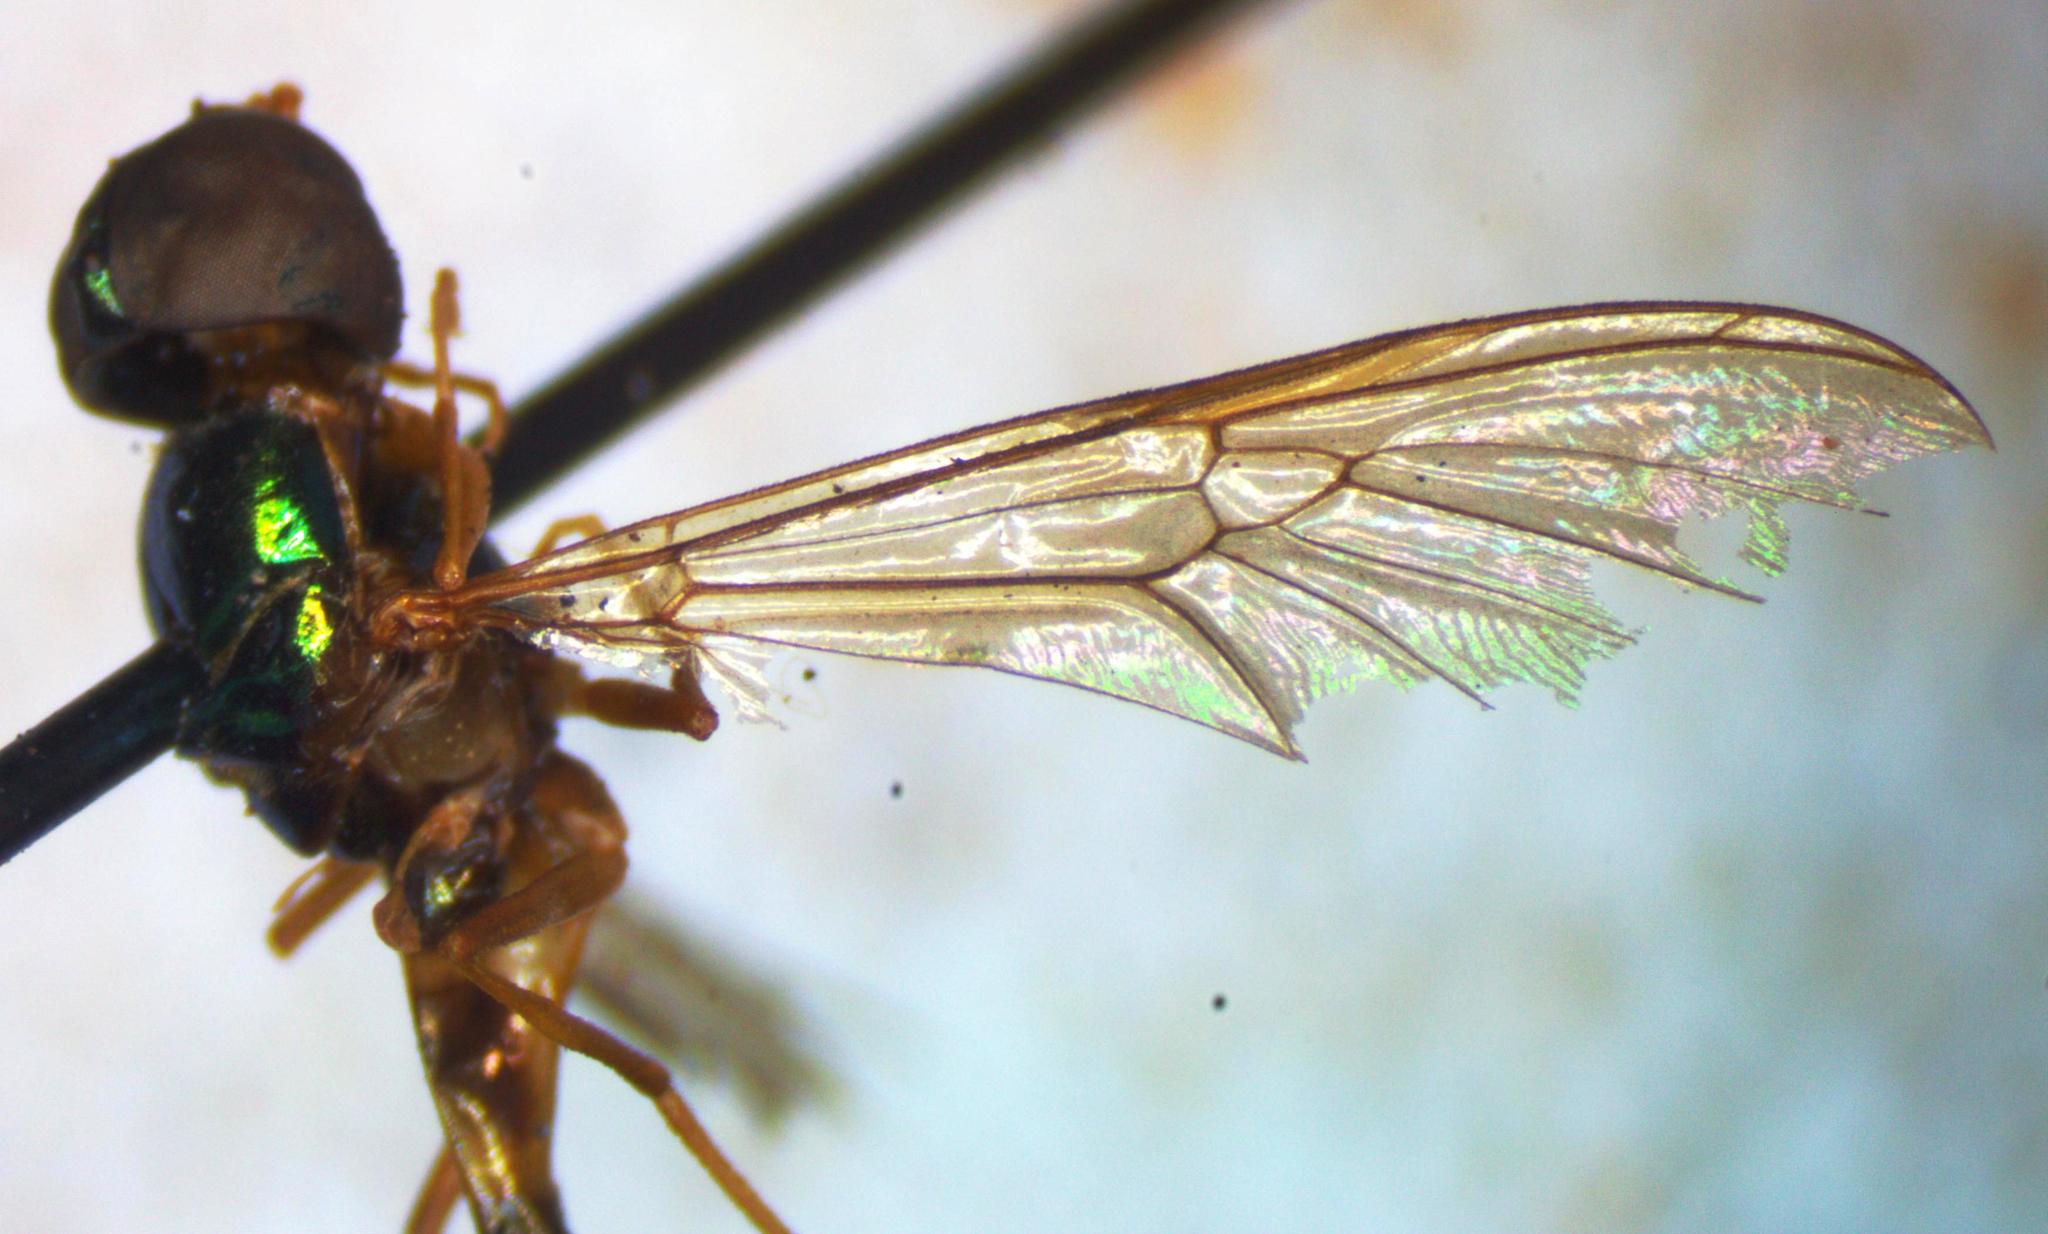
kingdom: Animalia
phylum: Arthropoda
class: Insecta
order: Diptera
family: Stratiomyidae
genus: Sargus
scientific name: Sargus fasciatus
